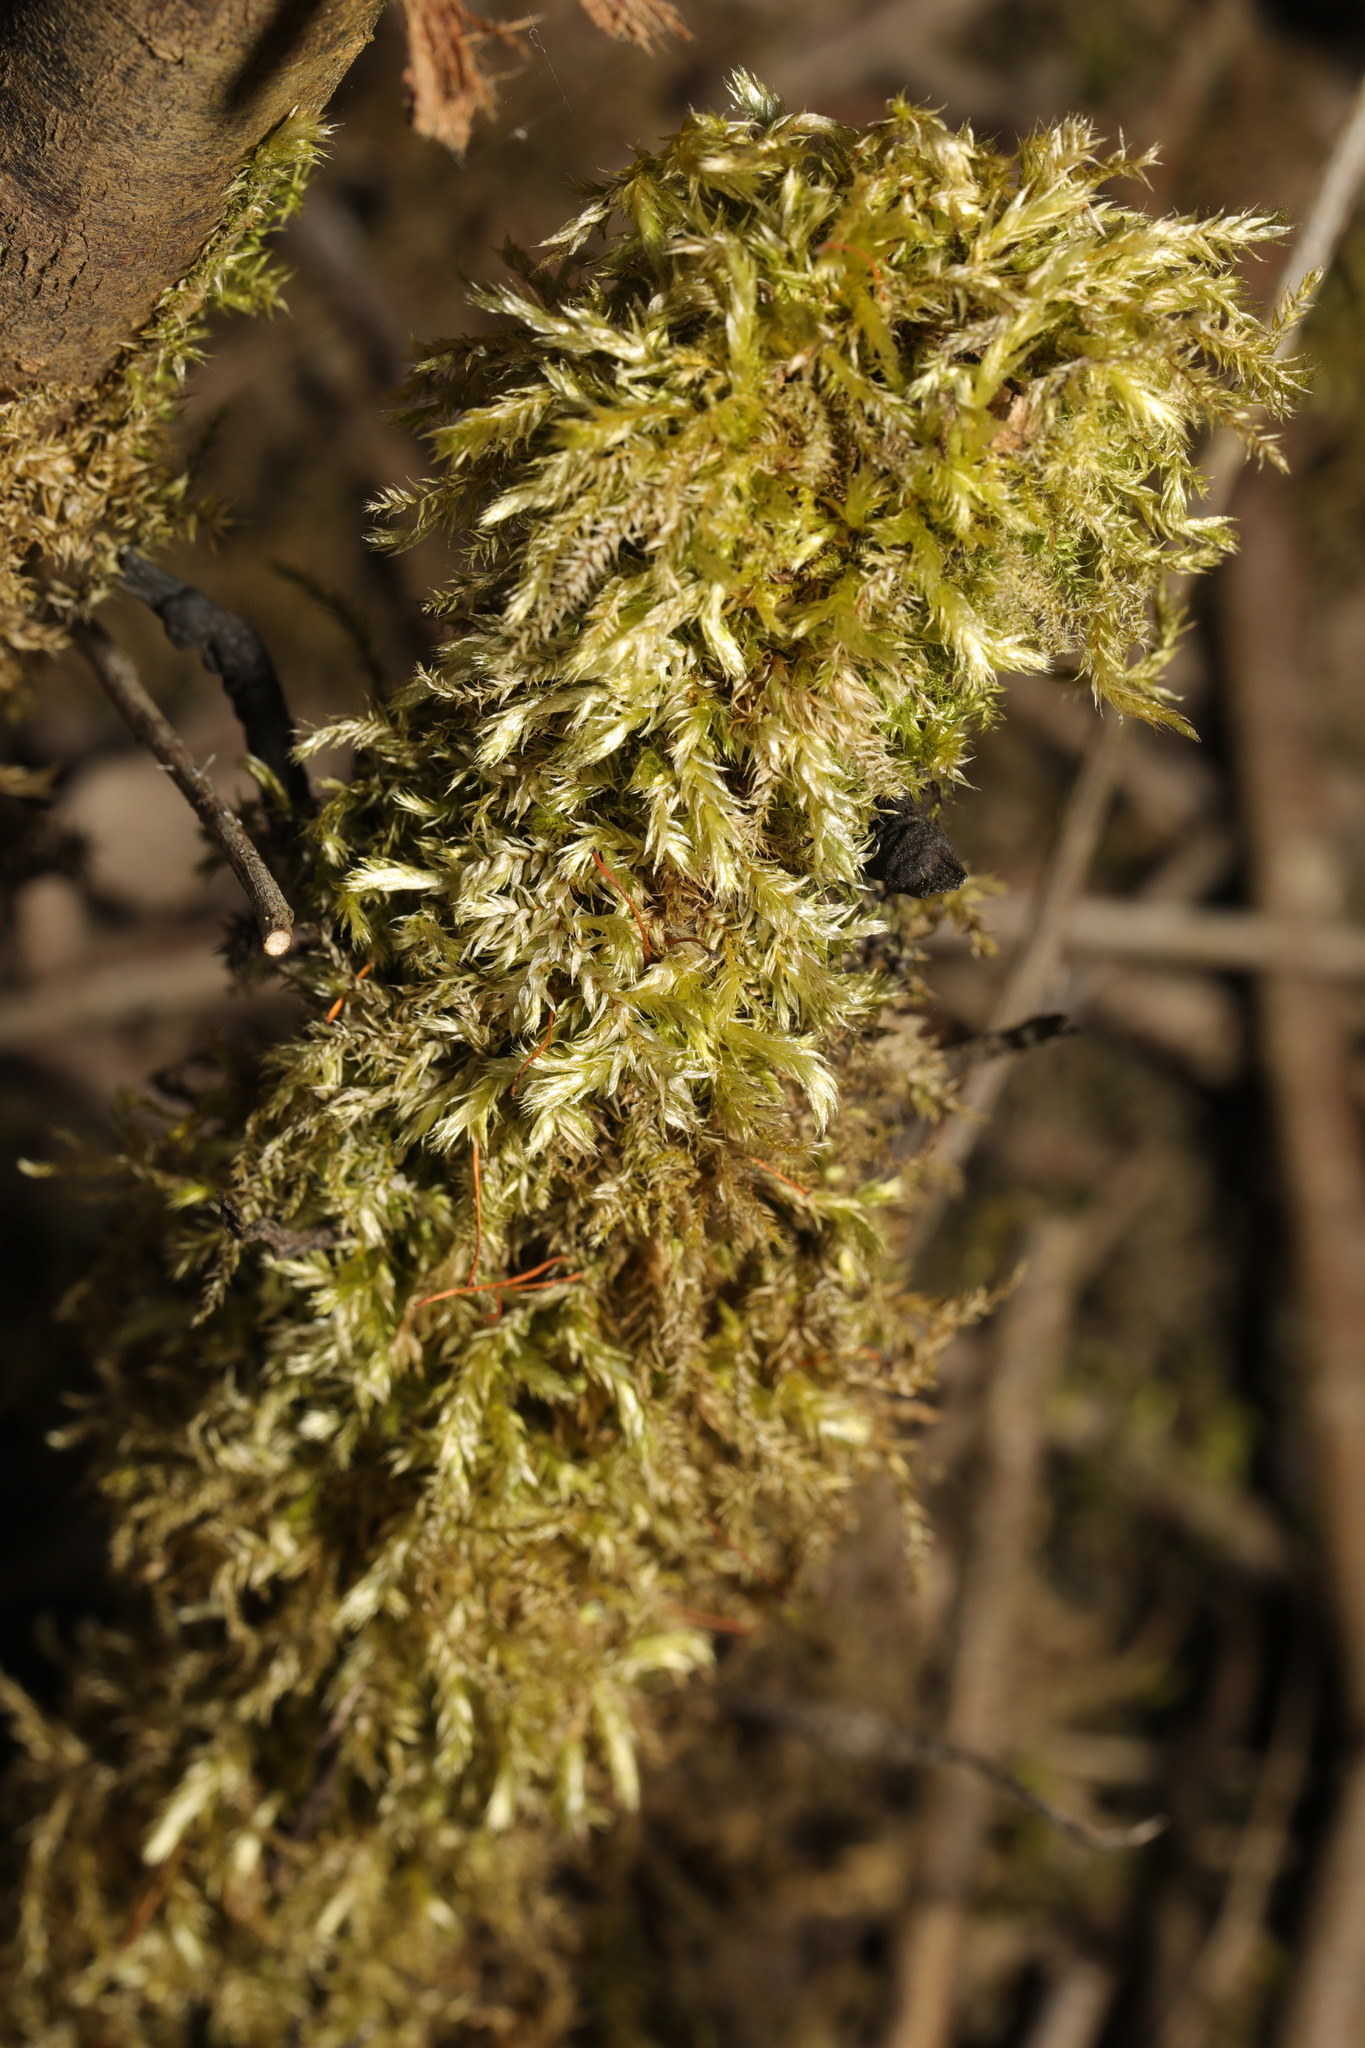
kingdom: Plantae
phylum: Bryophyta
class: Bryopsida
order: Hypnales
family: Brachytheciaceae
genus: Brachythecium
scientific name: Brachythecium rutabulum
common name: Rough-stalked feather-moss
